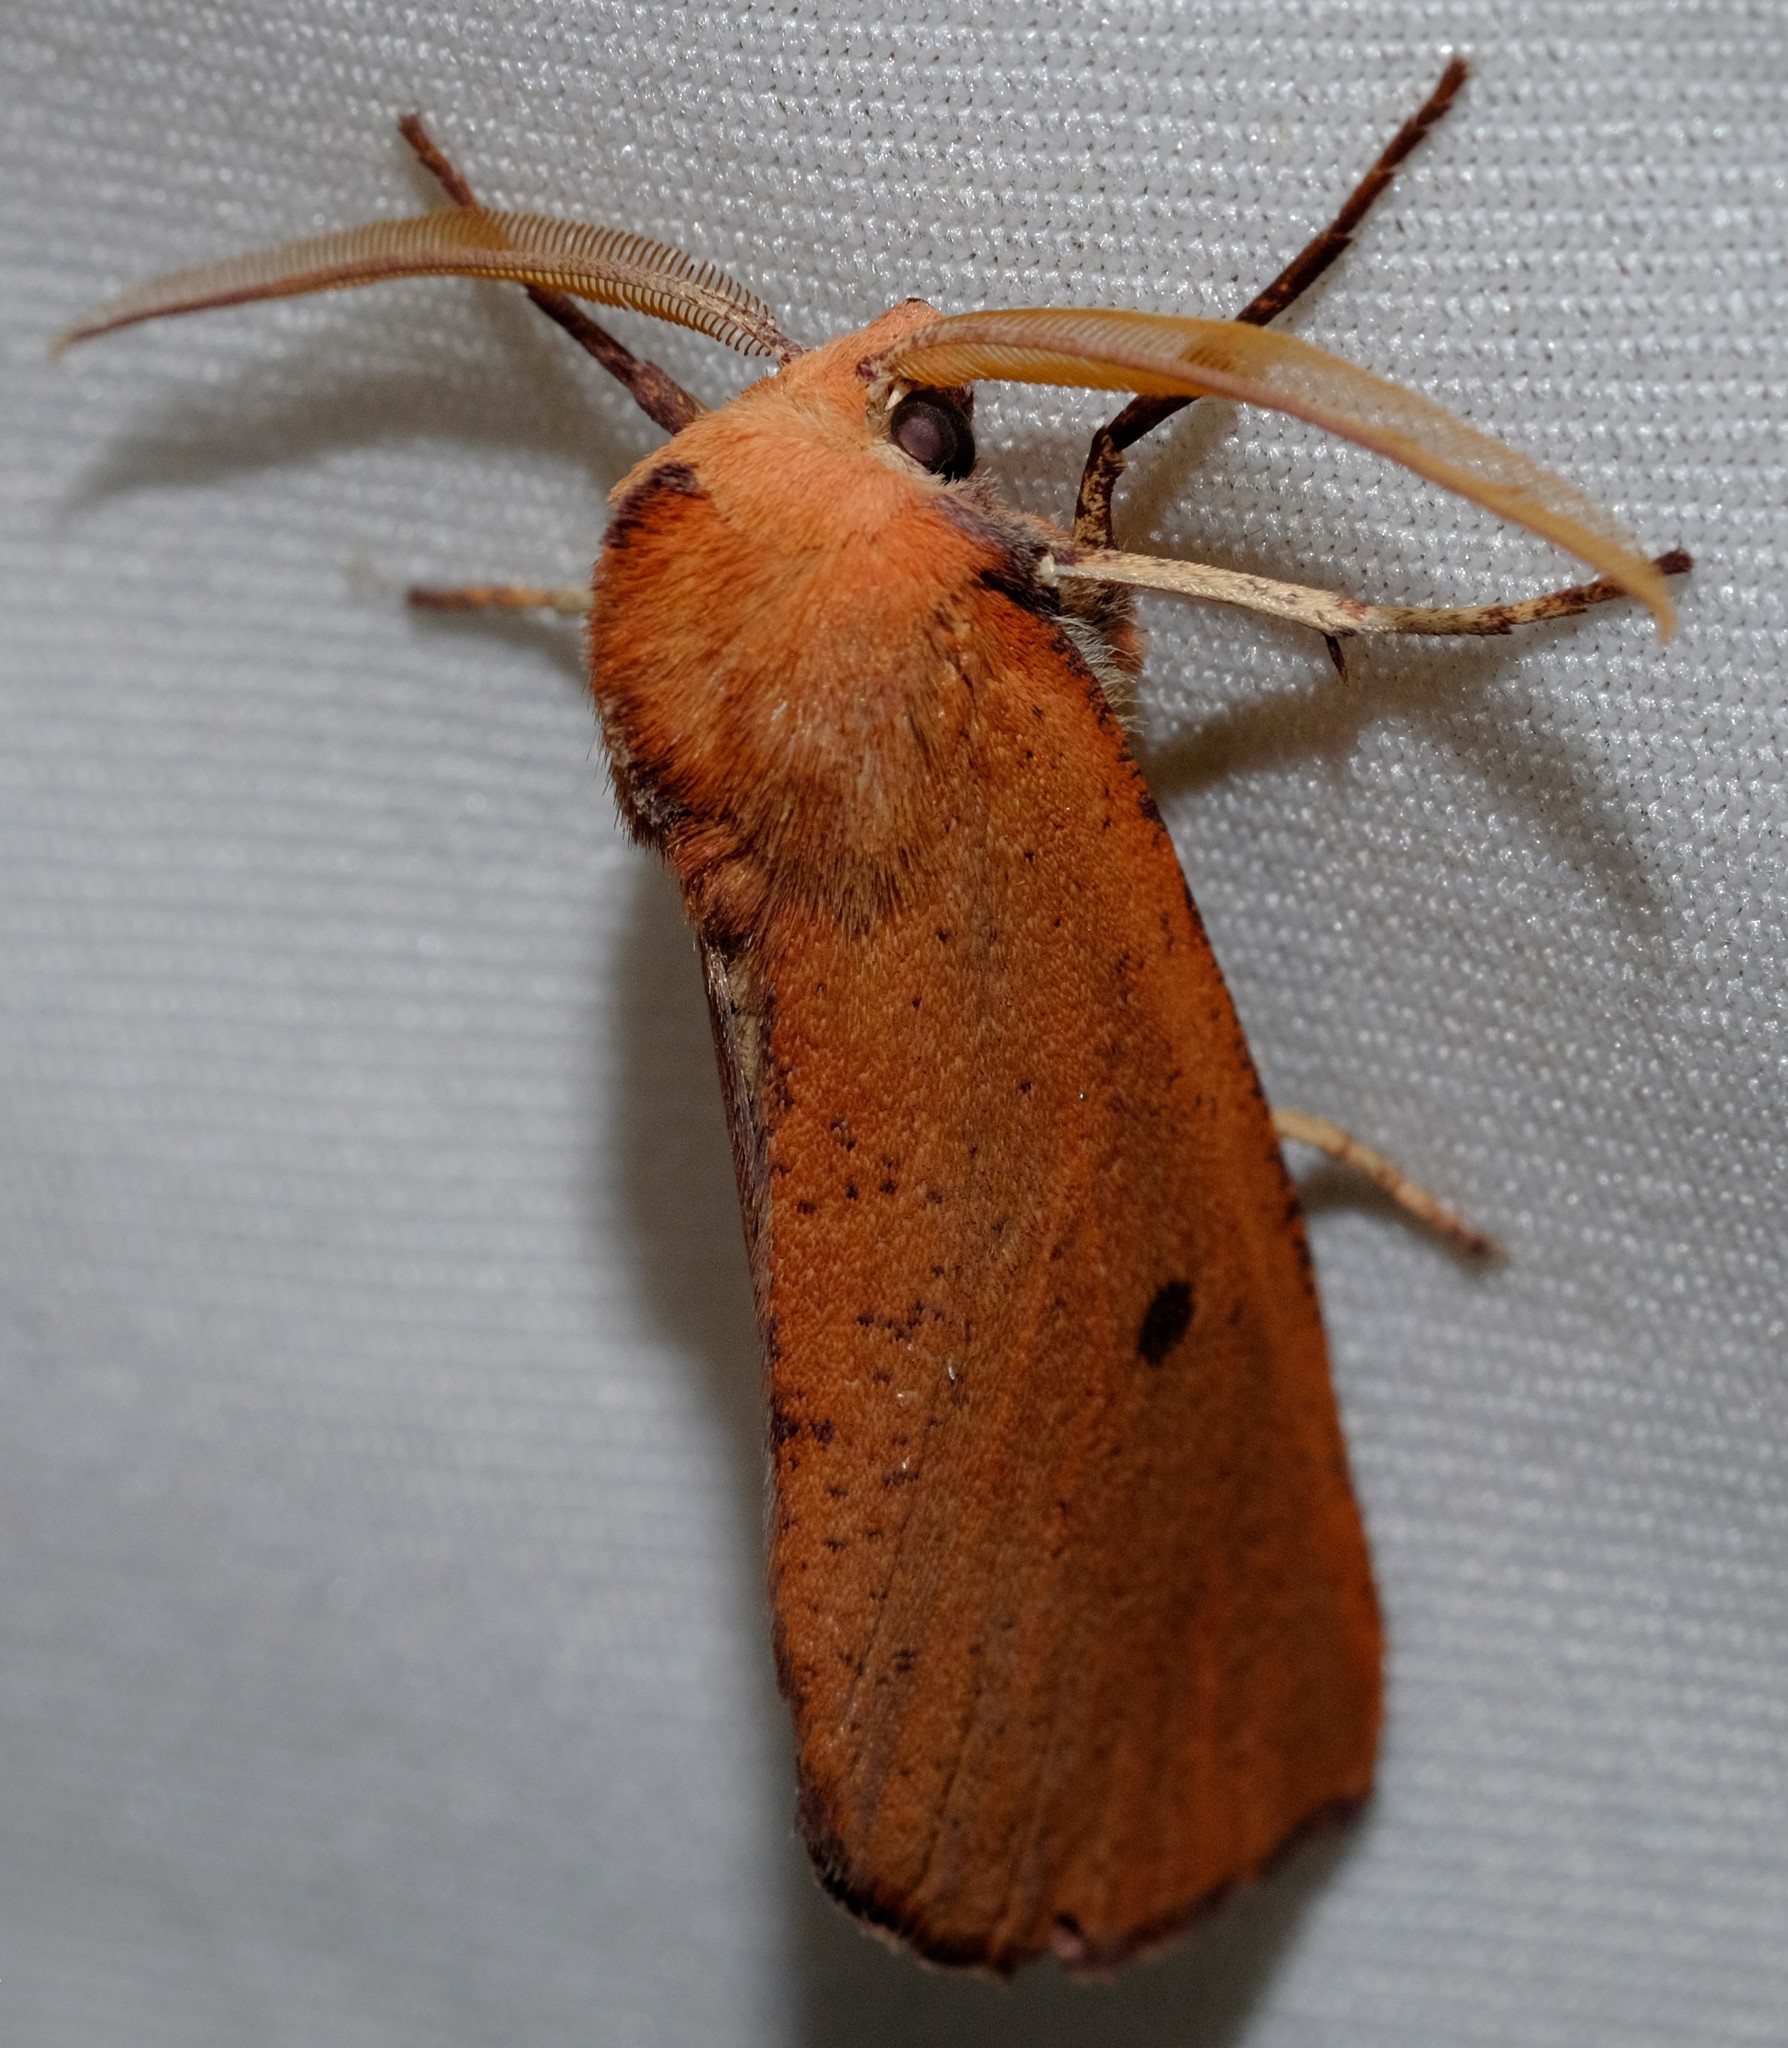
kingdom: Animalia
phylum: Arthropoda
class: Insecta
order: Lepidoptera
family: Geometridae
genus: Fisera
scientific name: Fisera hypoleuca
